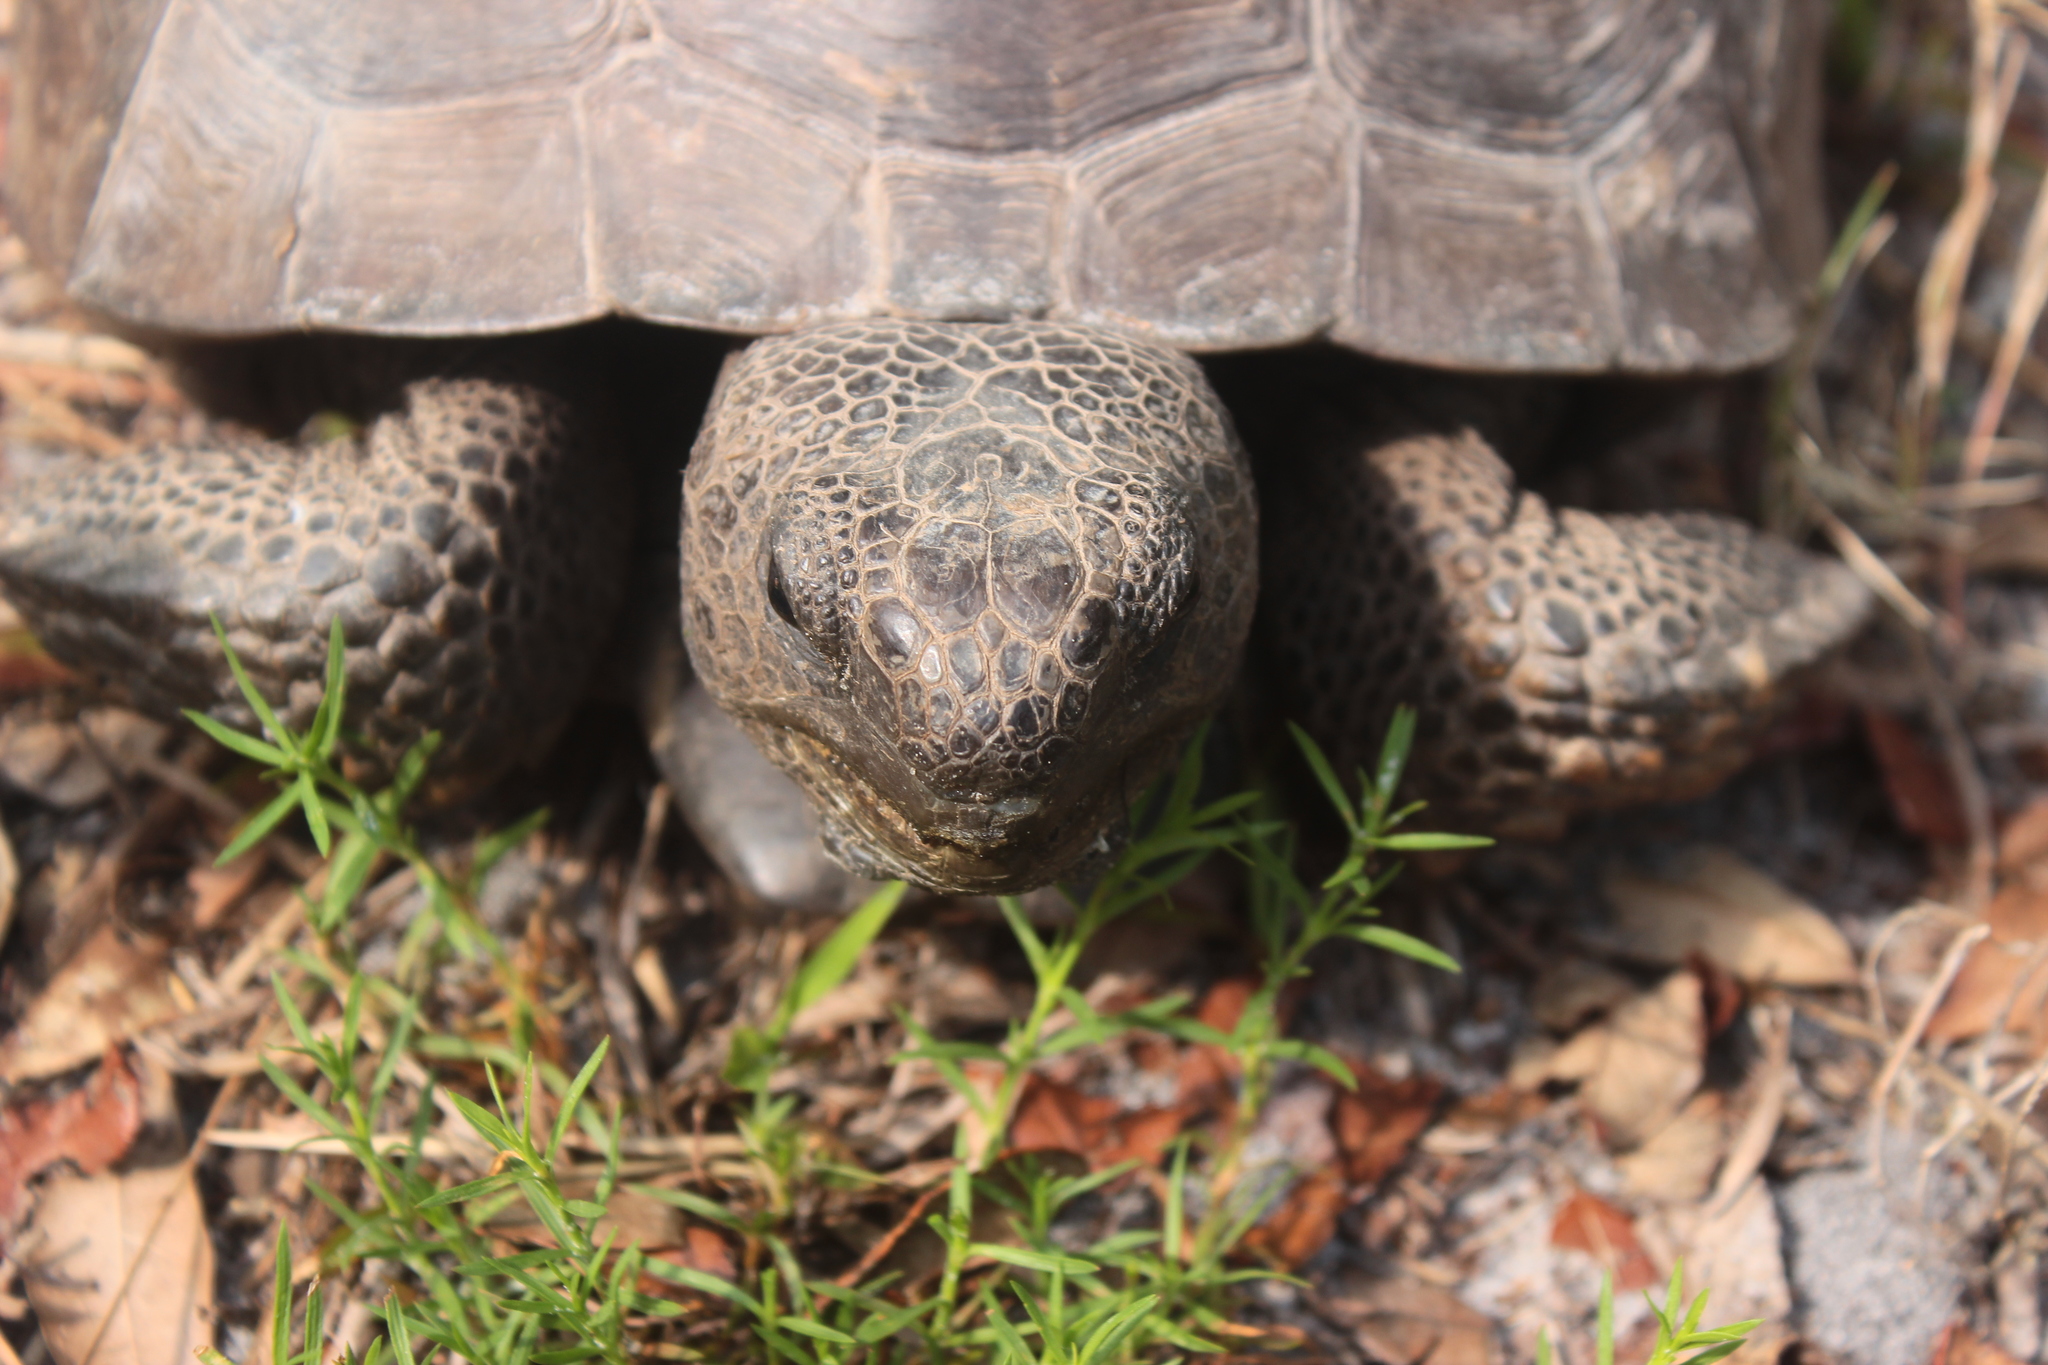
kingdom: Animalia
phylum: Chordata
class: Testudines
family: Testudinidae
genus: Gopherus
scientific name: Gopherus polyphemus
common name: Florida gopher tortoise
